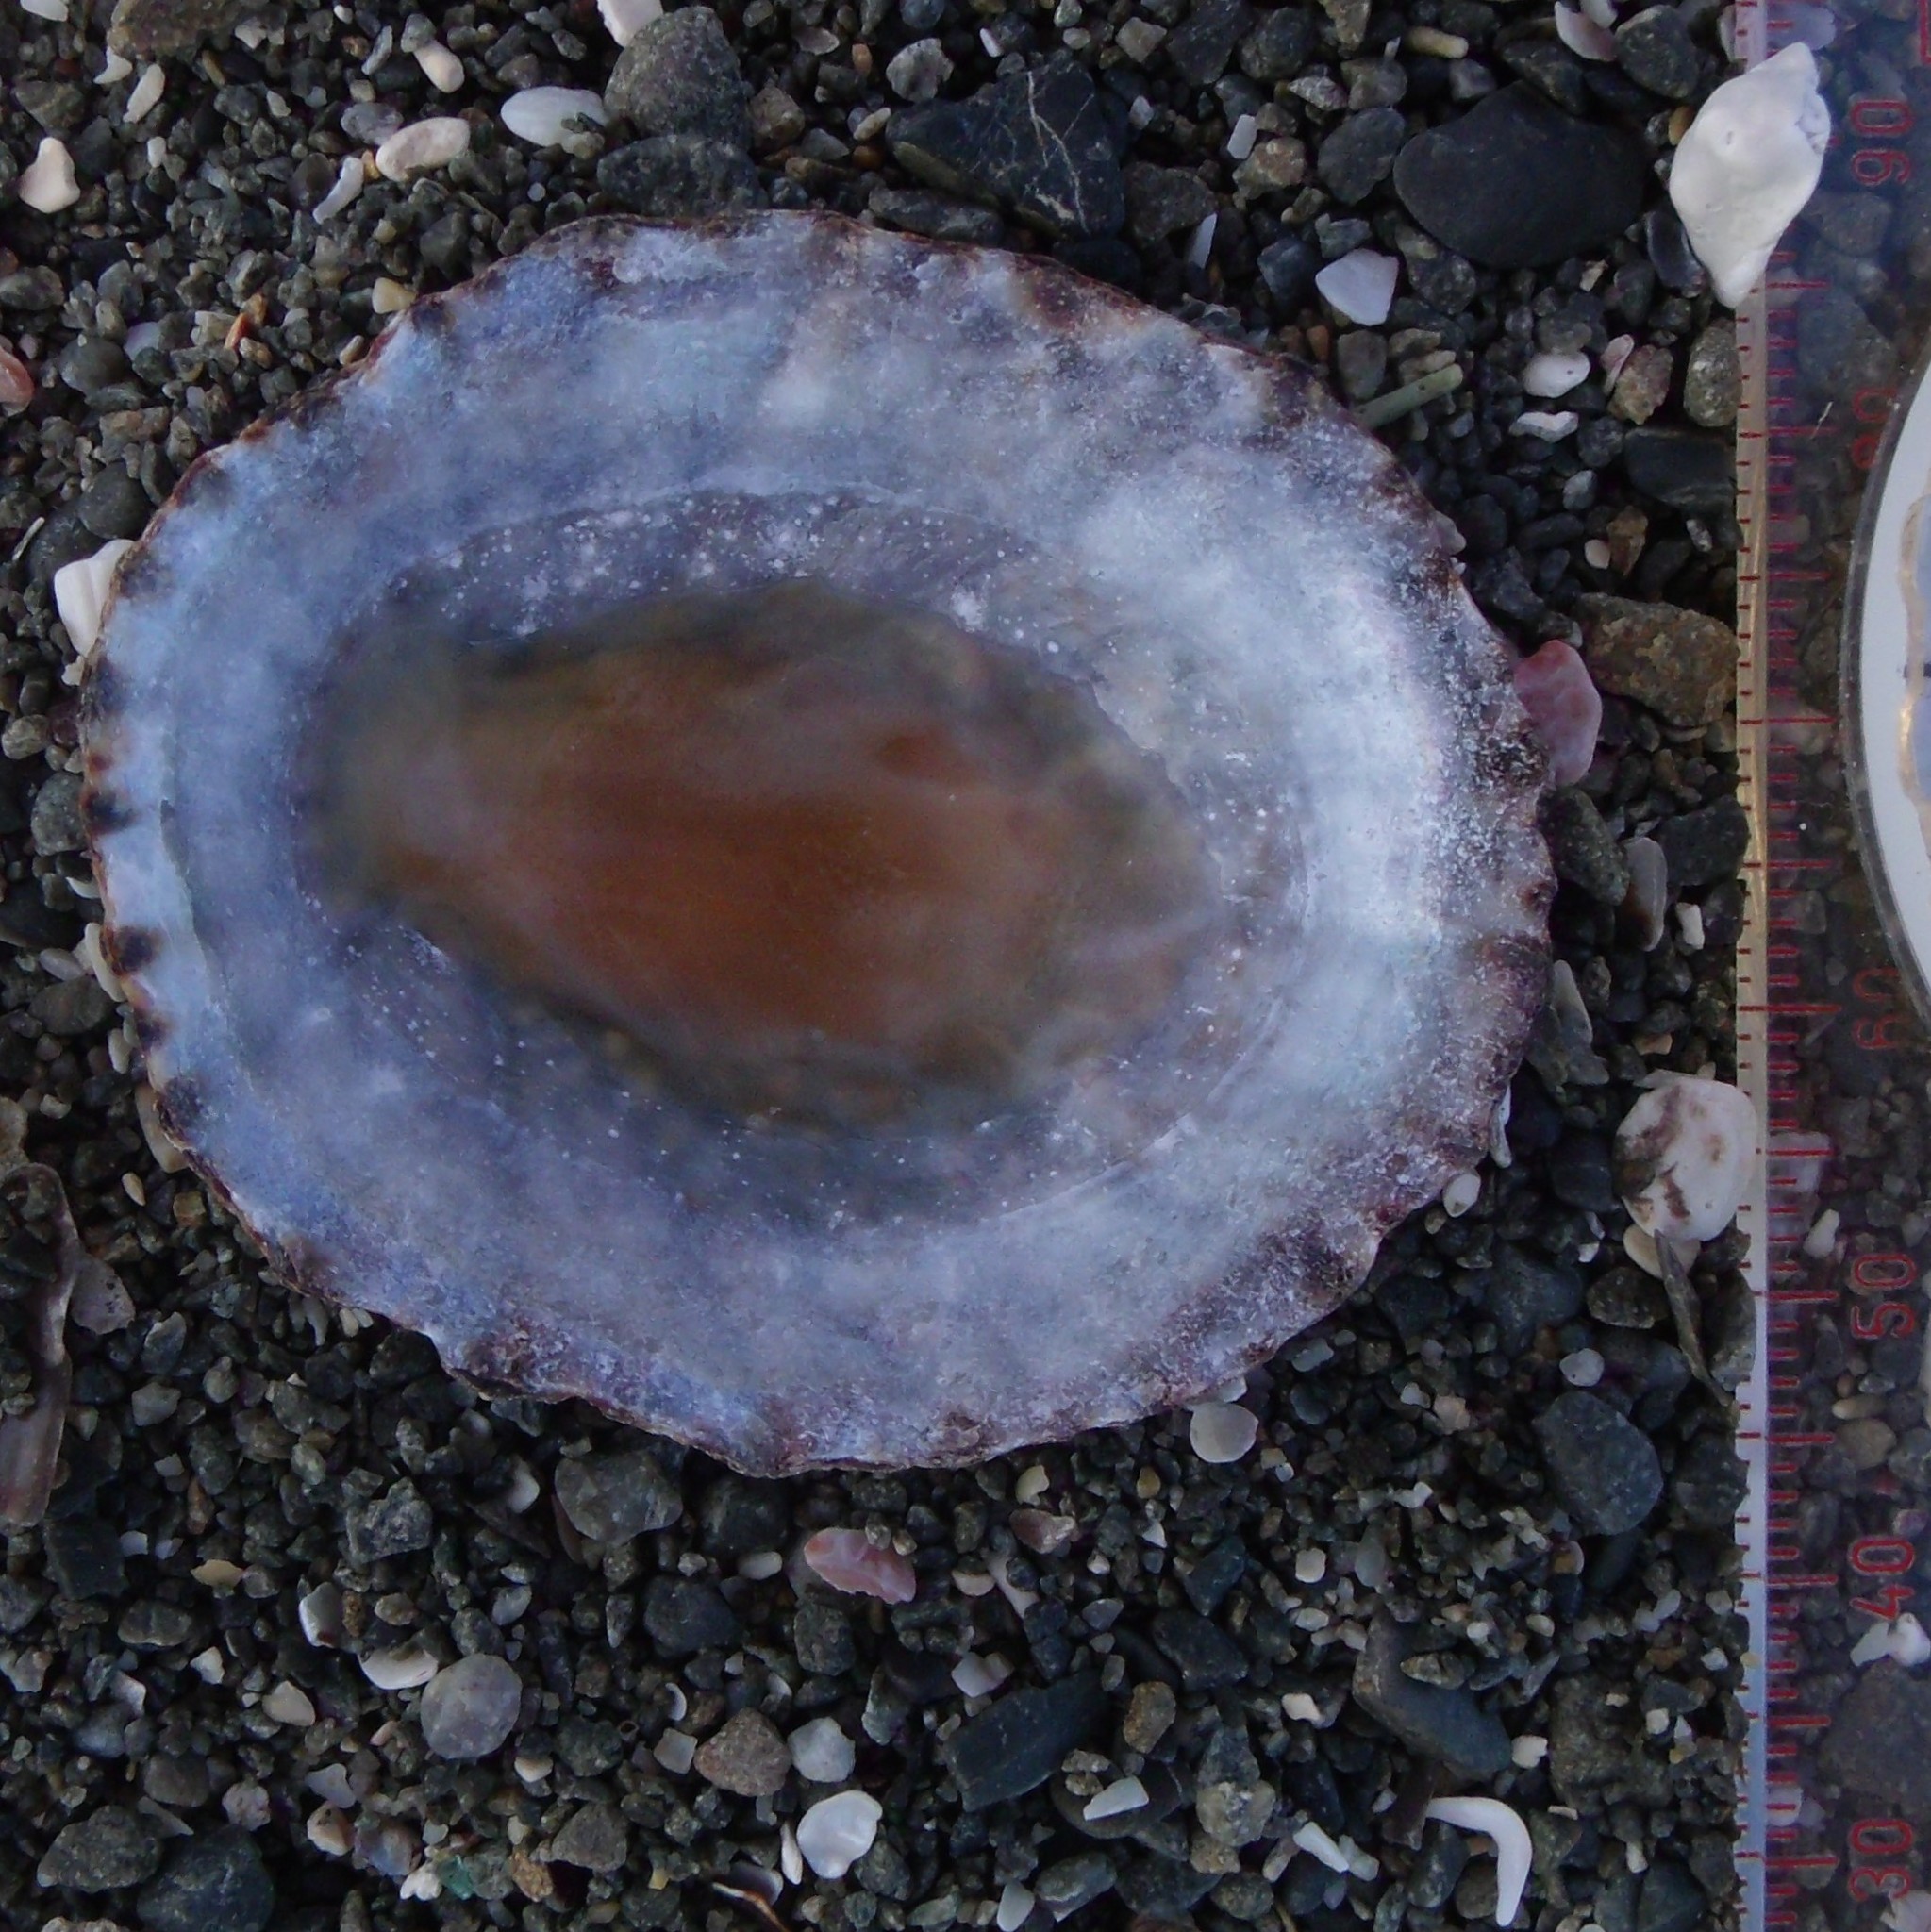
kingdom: Animalia
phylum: Mollusca
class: Gastropoda
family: Nacellidae
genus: Cellana
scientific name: Cellana denticulata
